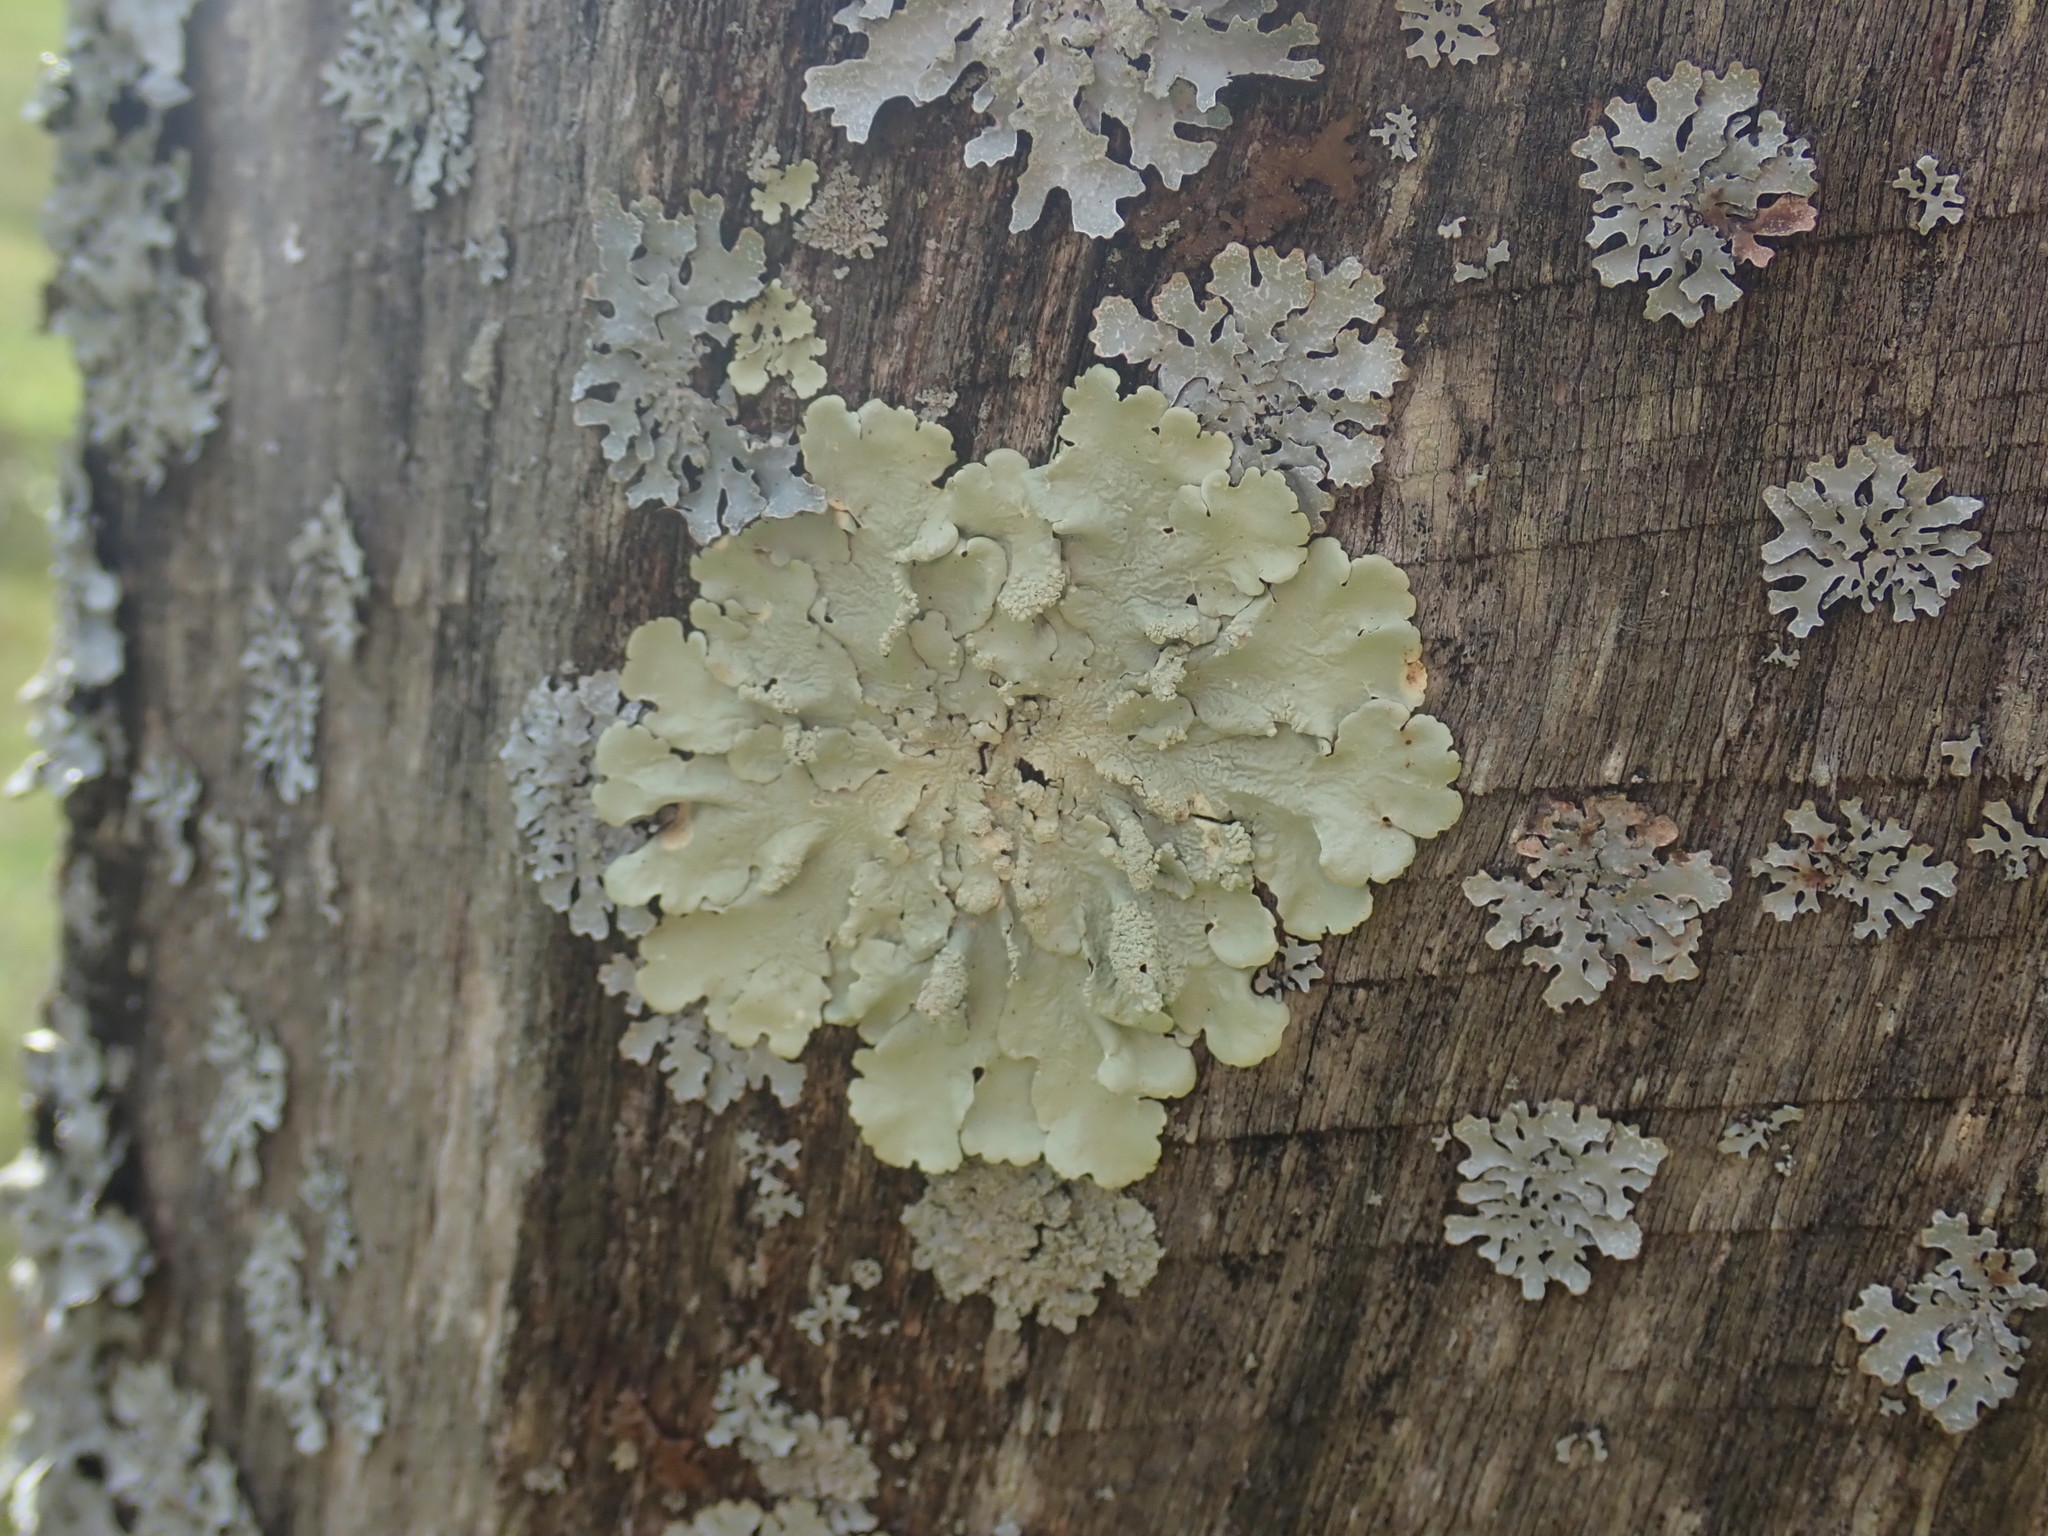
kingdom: Fungi
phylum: Ascomycota
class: Lecanoromycetes
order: Lecanorales
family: Parmeliaceae
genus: Flavoparmelia
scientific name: Flavoparmelia caperata
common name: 40-mile per hour lichen
